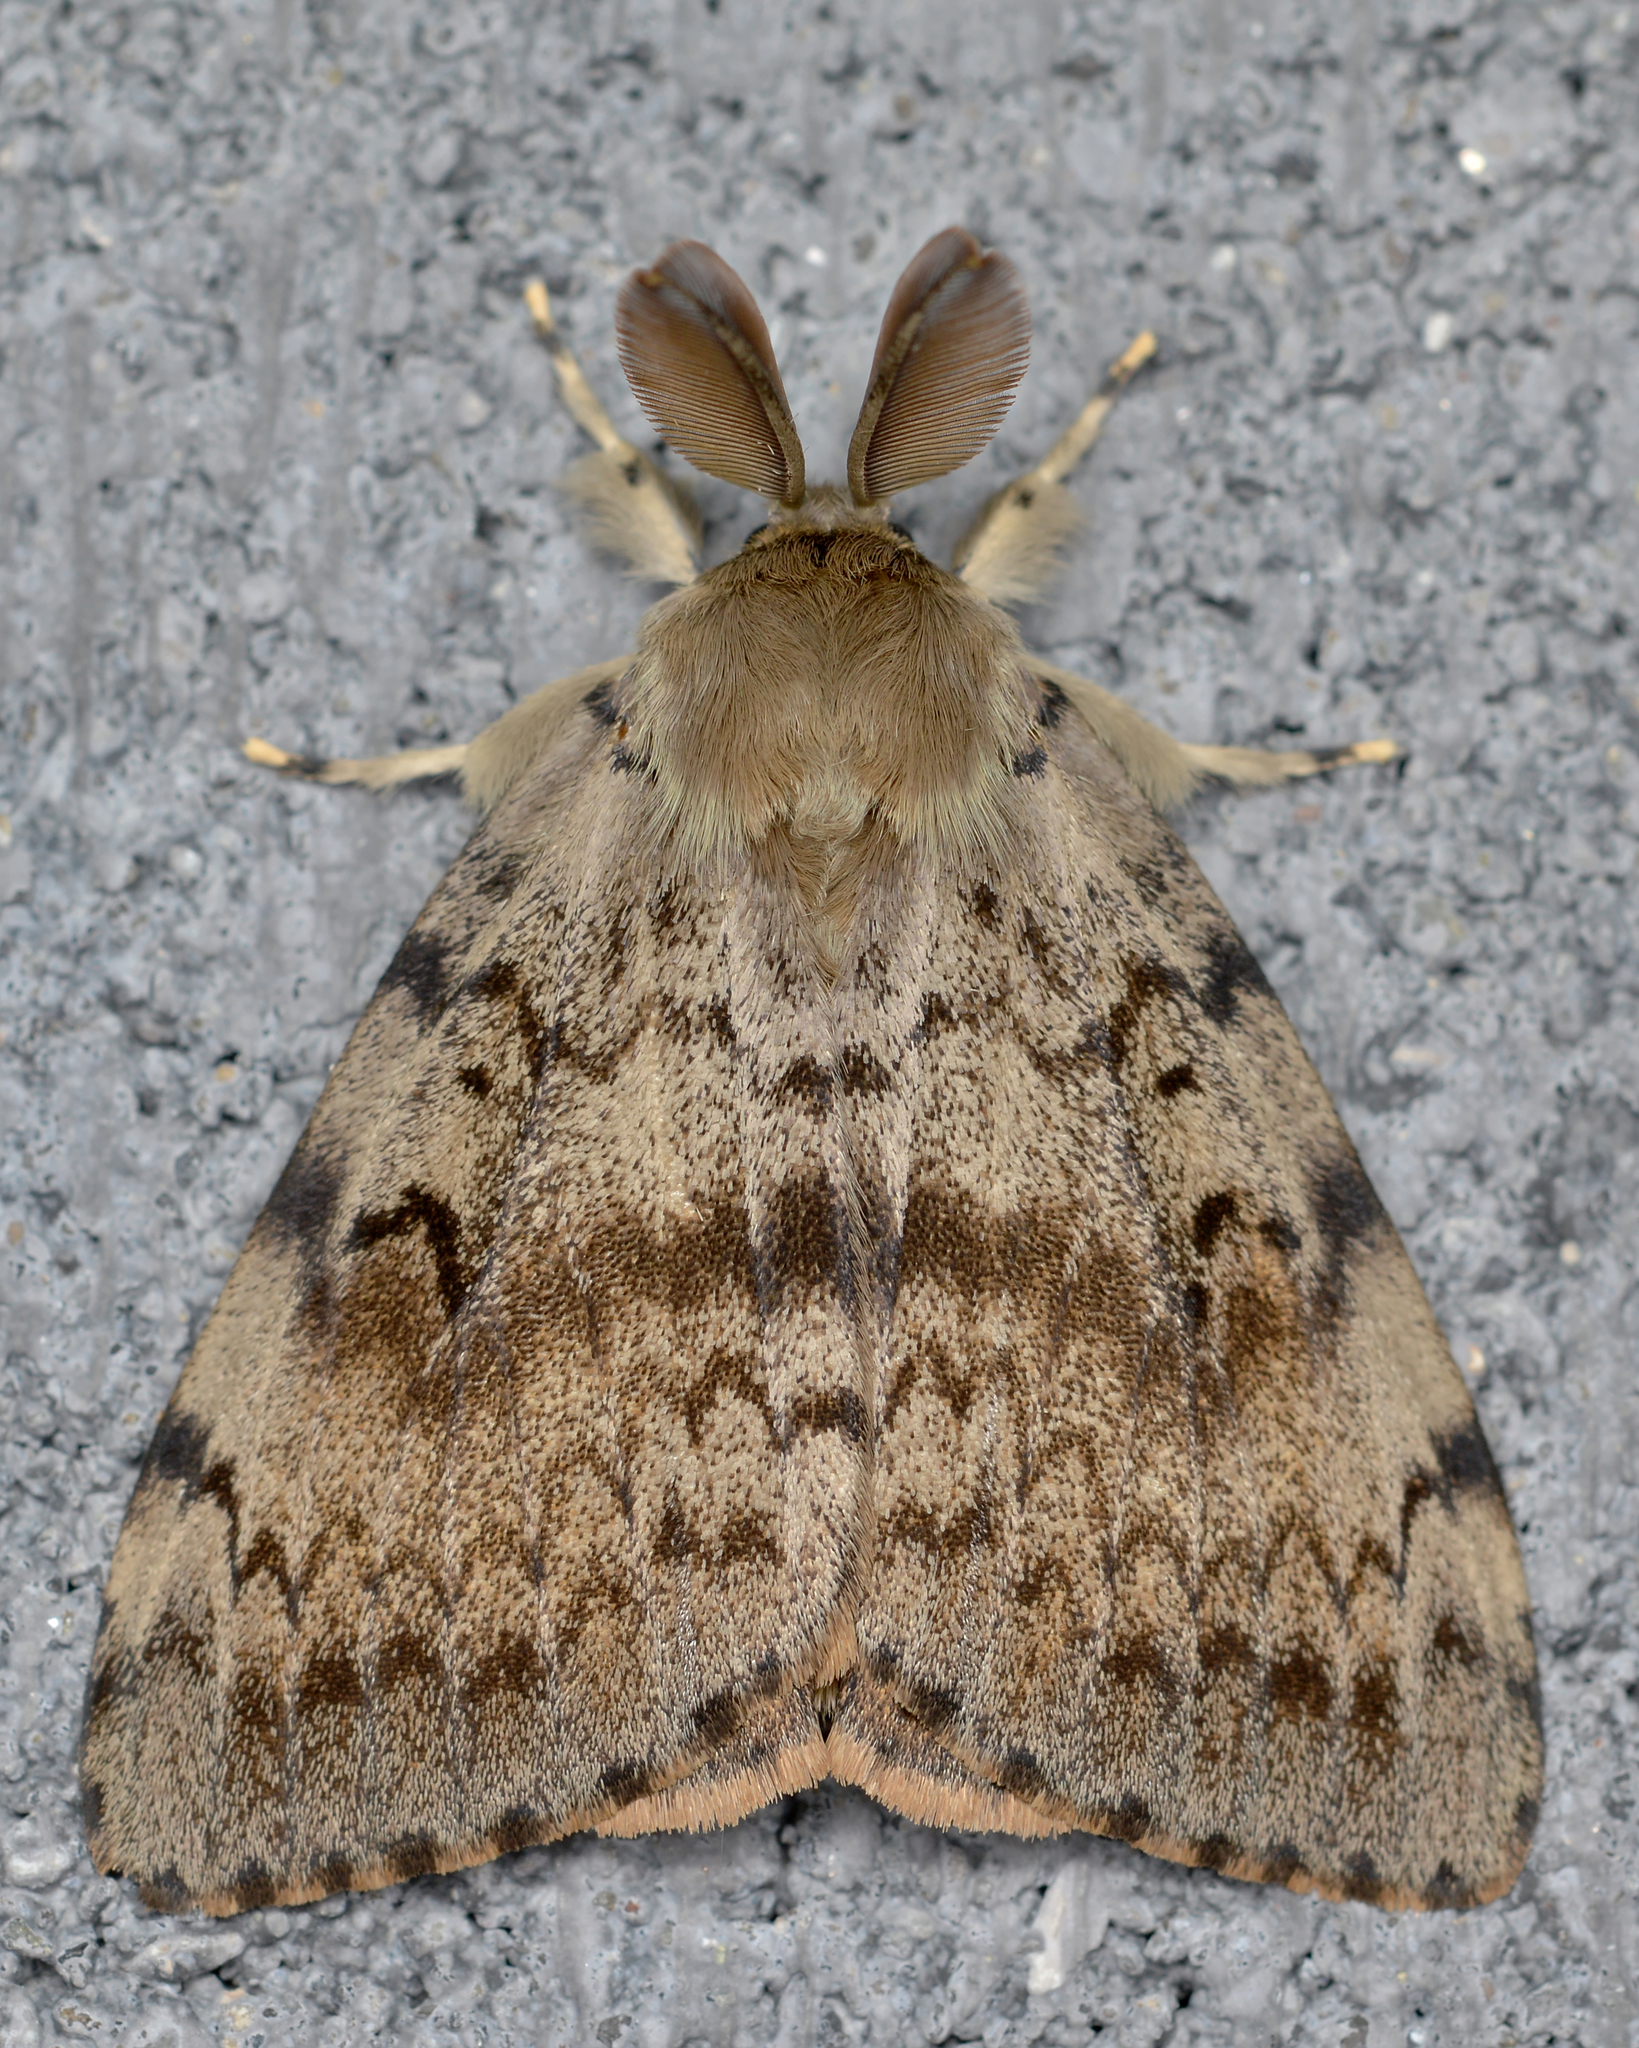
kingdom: Animalia
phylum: Arthropoda
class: Insecta
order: Lepidoptera
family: Erebidae
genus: Lymantria
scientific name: Lymantria dispar
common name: Gypsy moth
